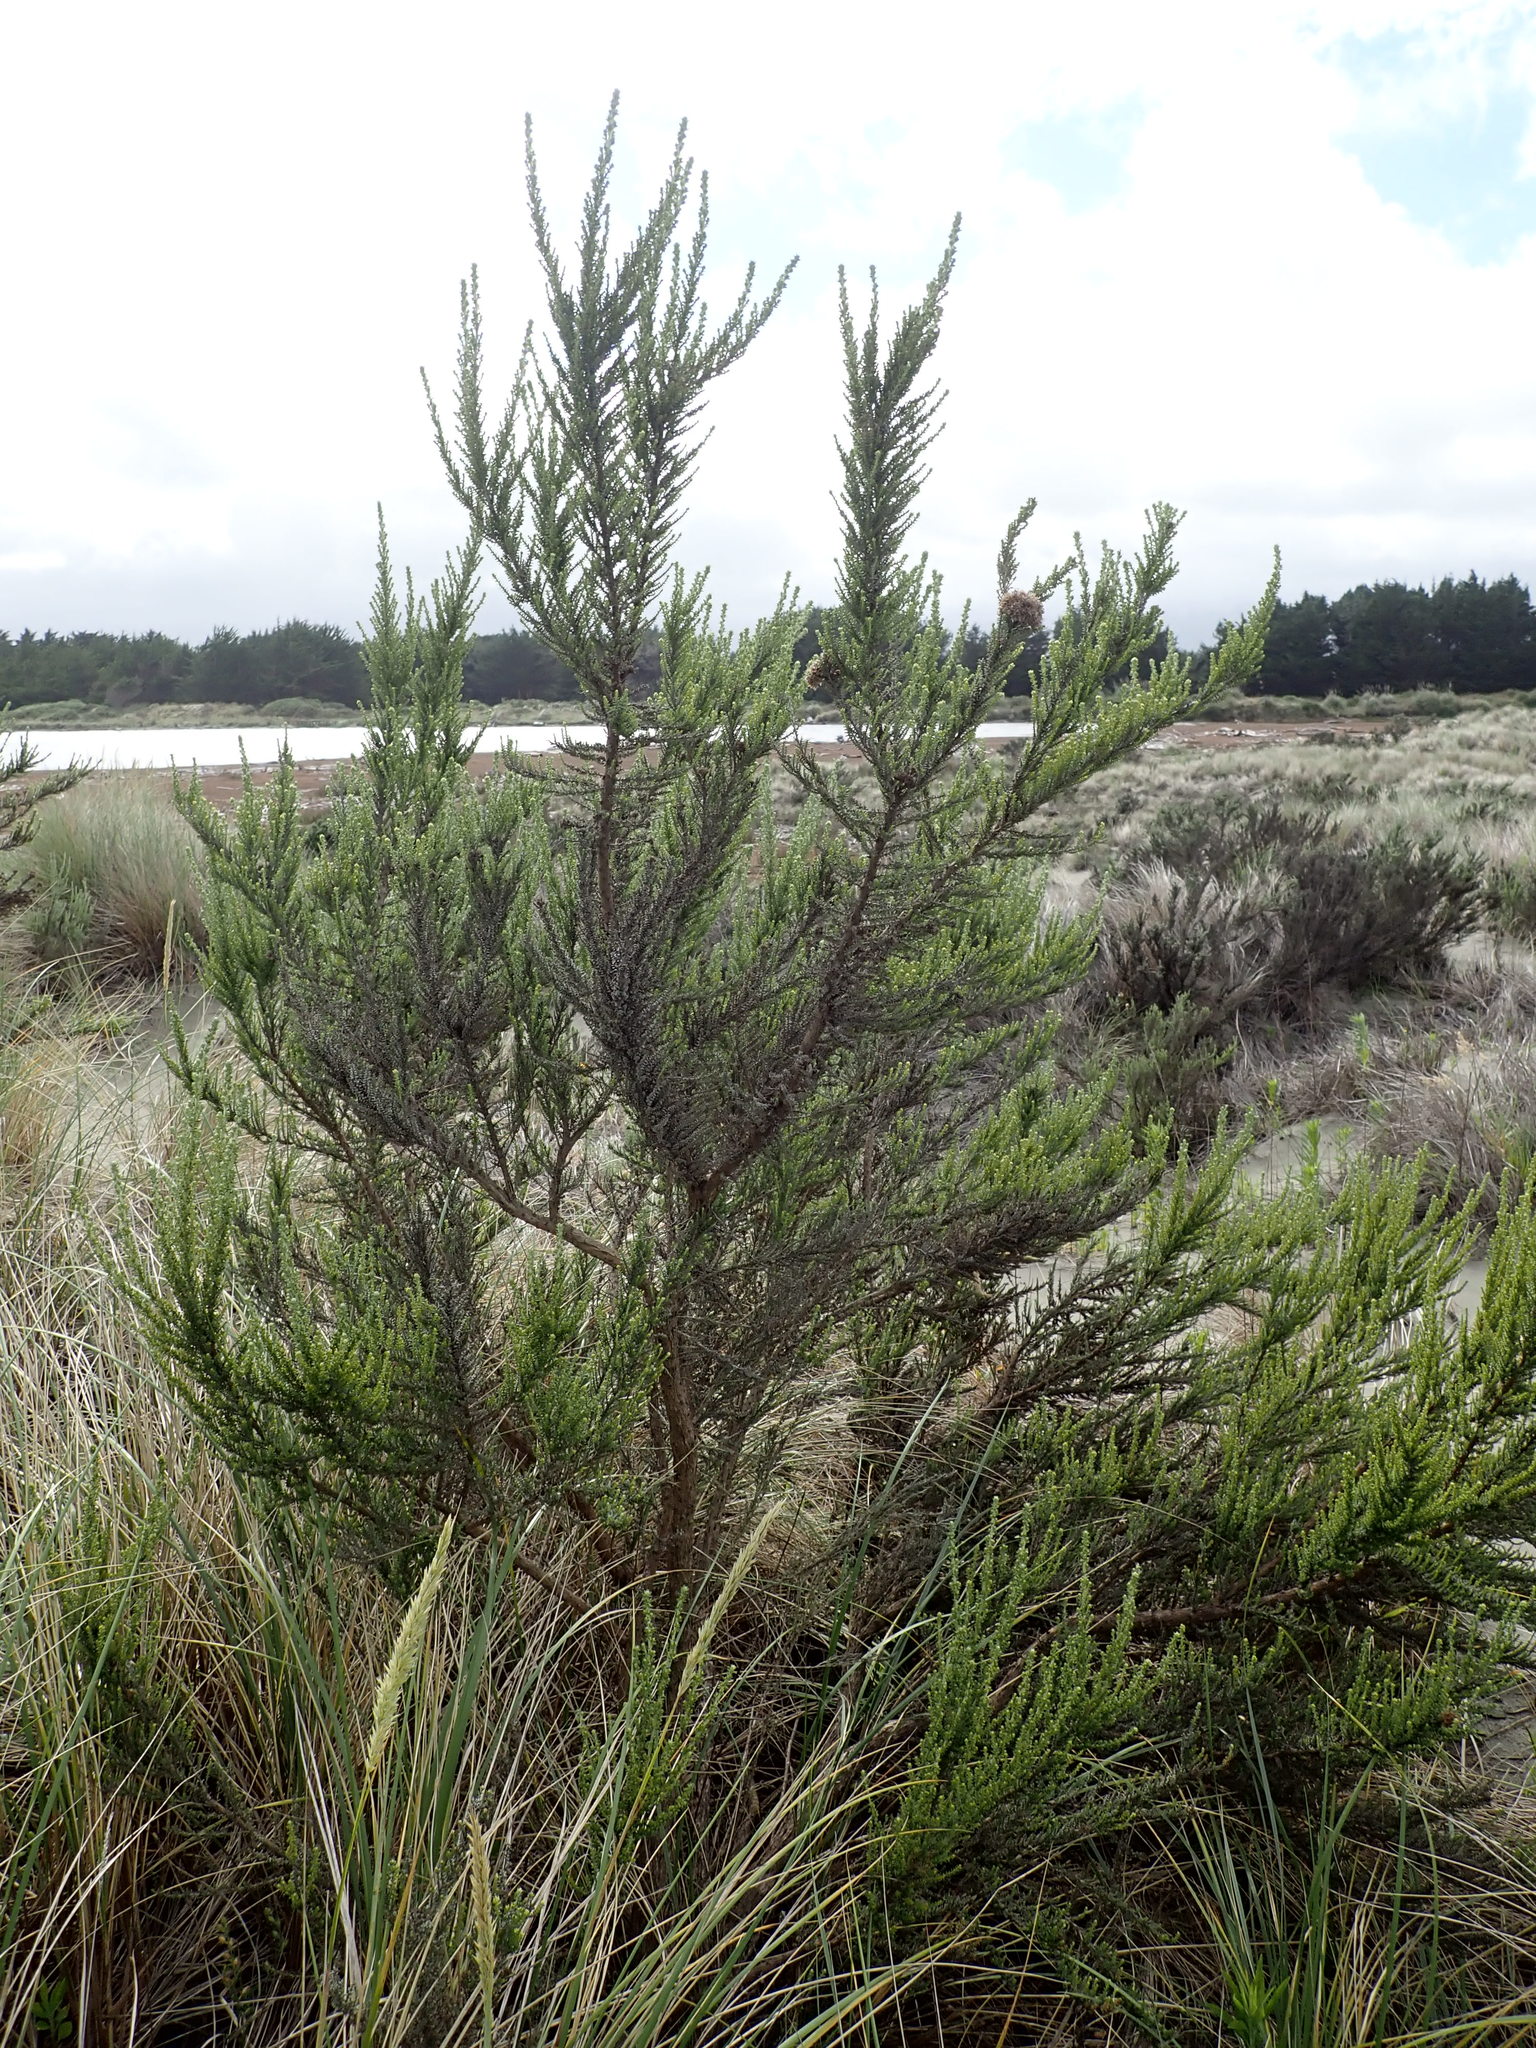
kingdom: Plantae
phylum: Tracheophyta
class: Magnoliopsida
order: Asterales
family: Asteraceae
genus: Ozothamnus
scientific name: Ozothamnus leptophyllus
